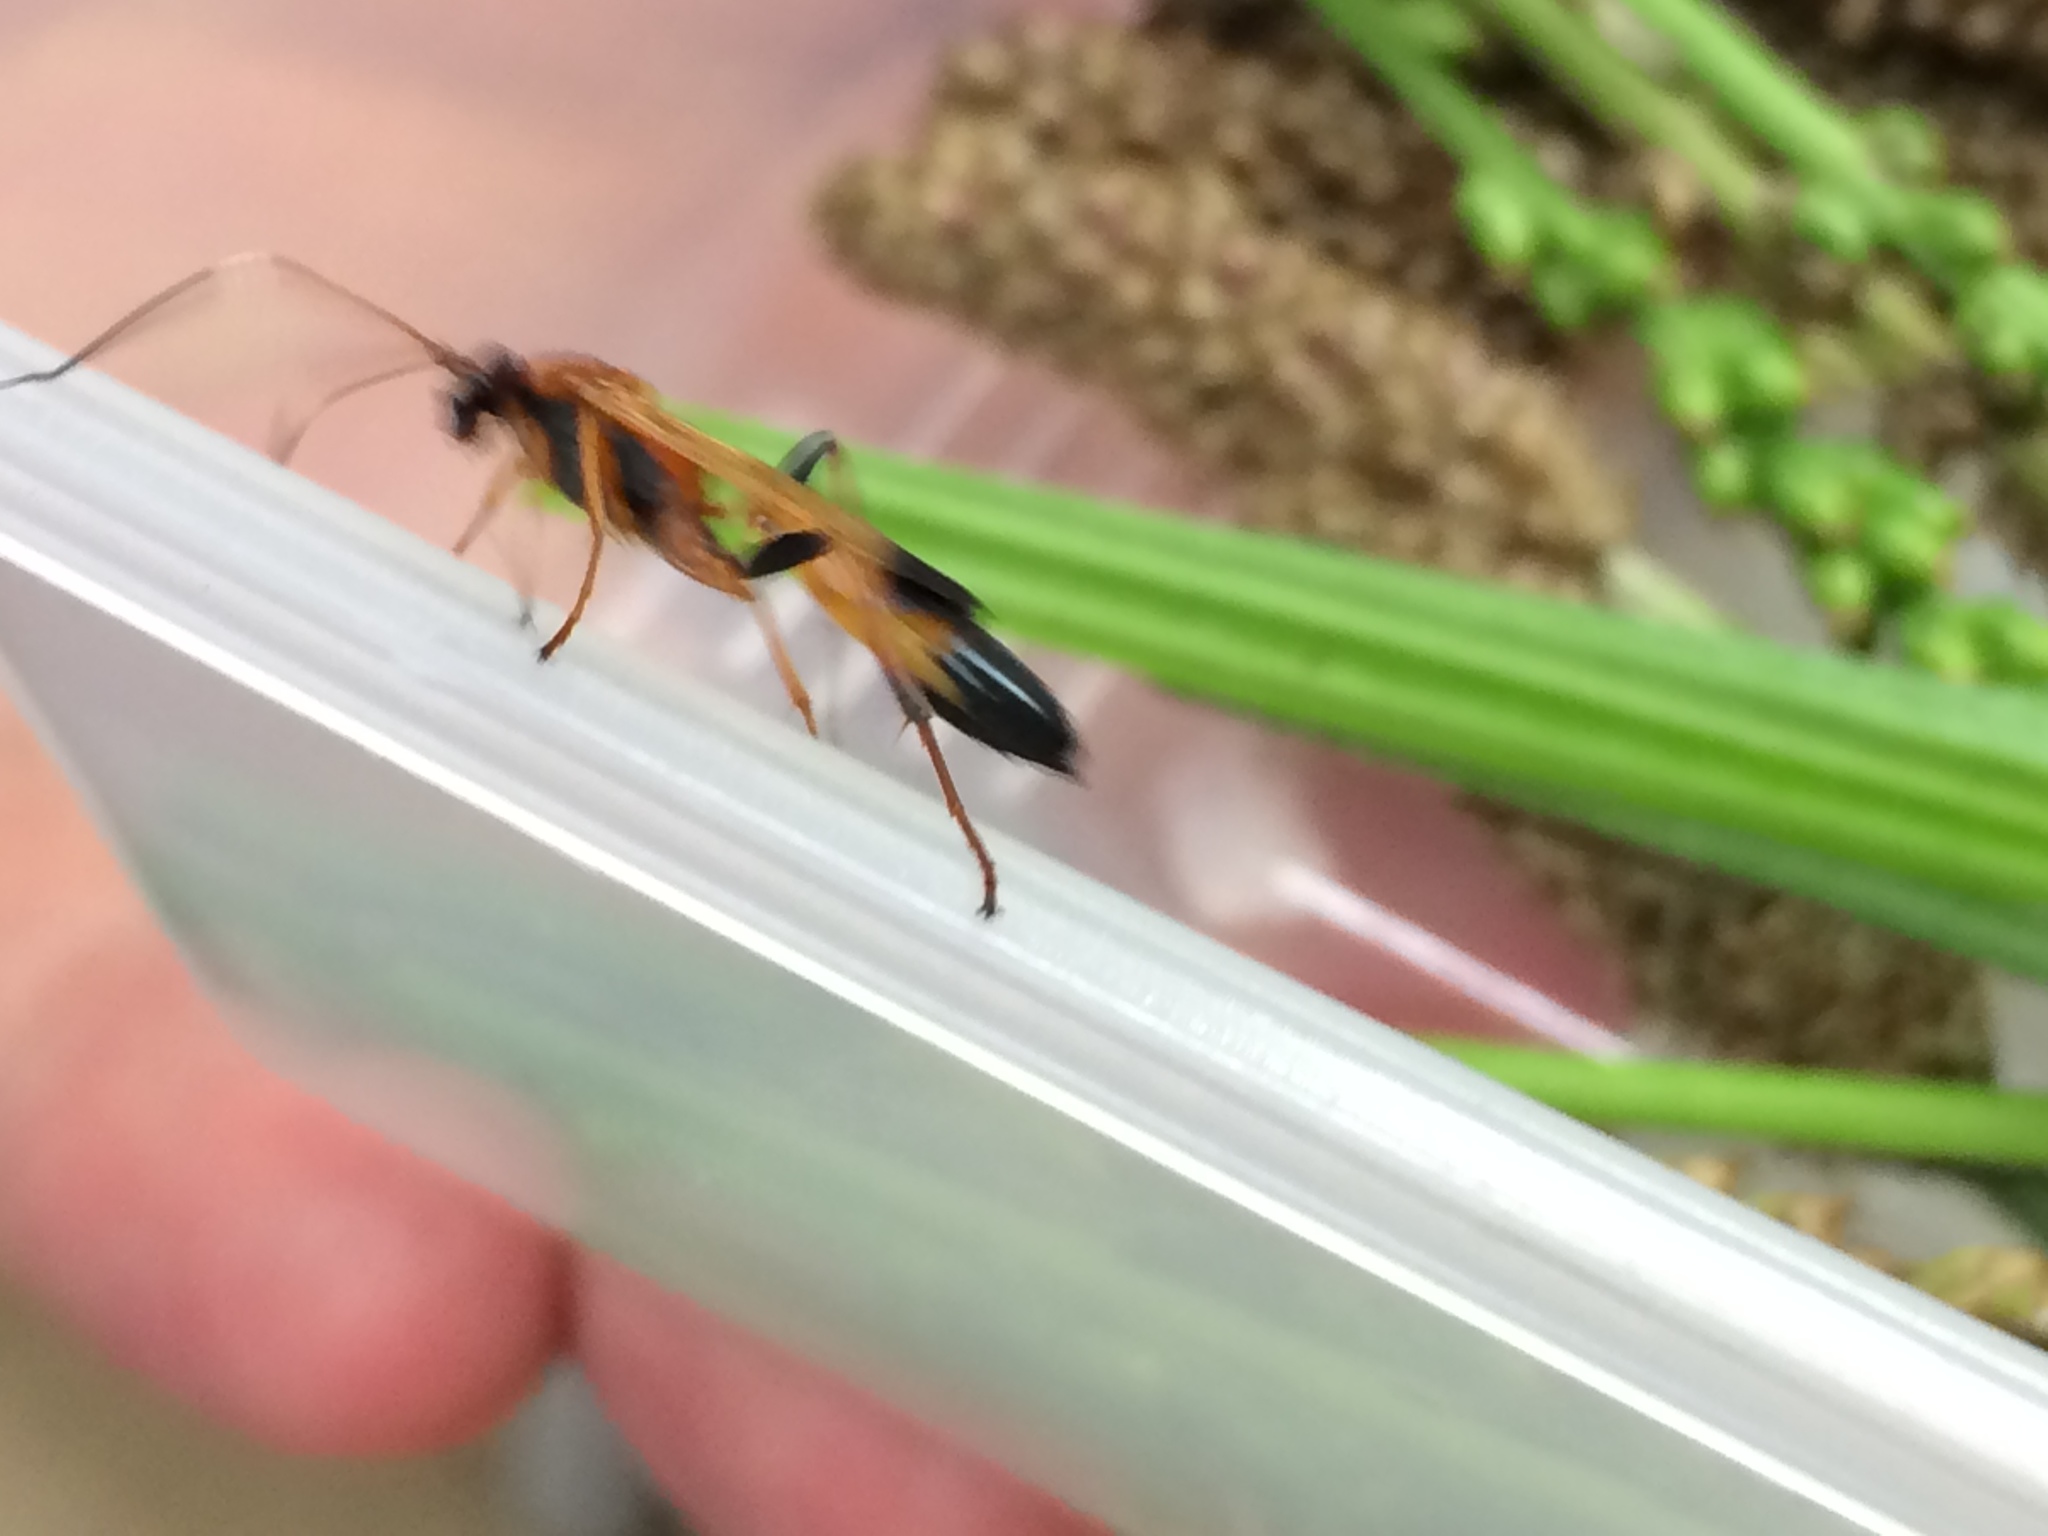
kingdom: Animalia
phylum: Arthropoda
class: Insecta
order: Hymenoptera
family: Ichneumonidae
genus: Ctenochares
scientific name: Ctenochares bicolorus
